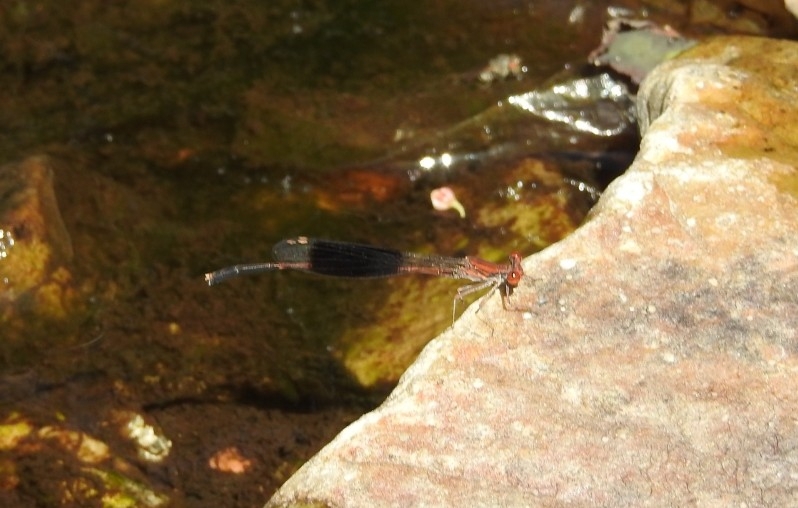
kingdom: Animalia
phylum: Arthropoda
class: Insecta
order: Odonata
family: Platycnemididae
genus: Disparoneura
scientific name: Disparoneura quadrimaculata
